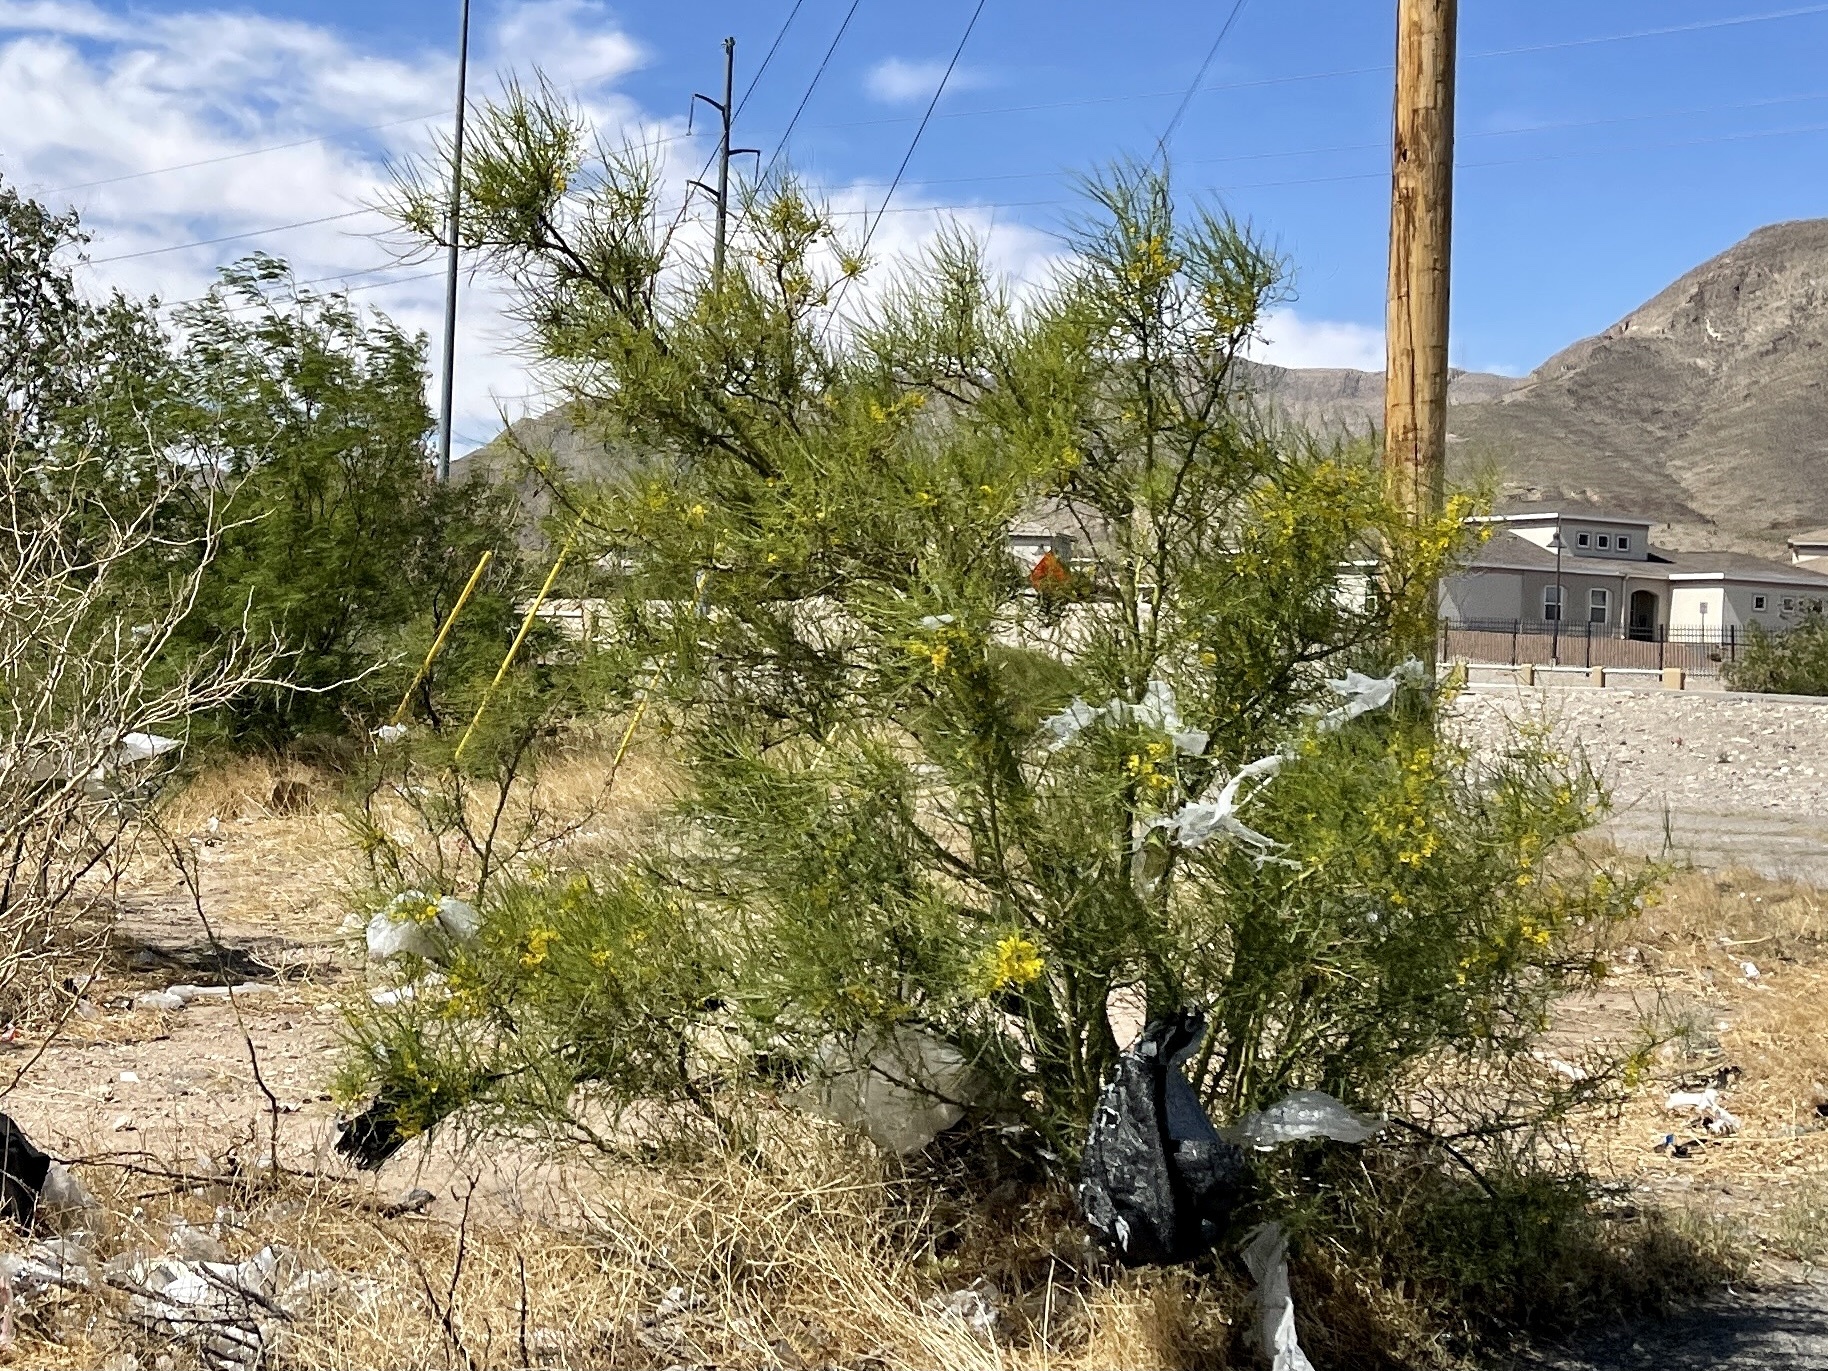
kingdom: Plantae
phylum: Tracheophyta
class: Magnoliopsida
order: Fabales
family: Fabaceae
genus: Parkinsonia
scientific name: Parkinsonia aculeata
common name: Jerusalem thorn
